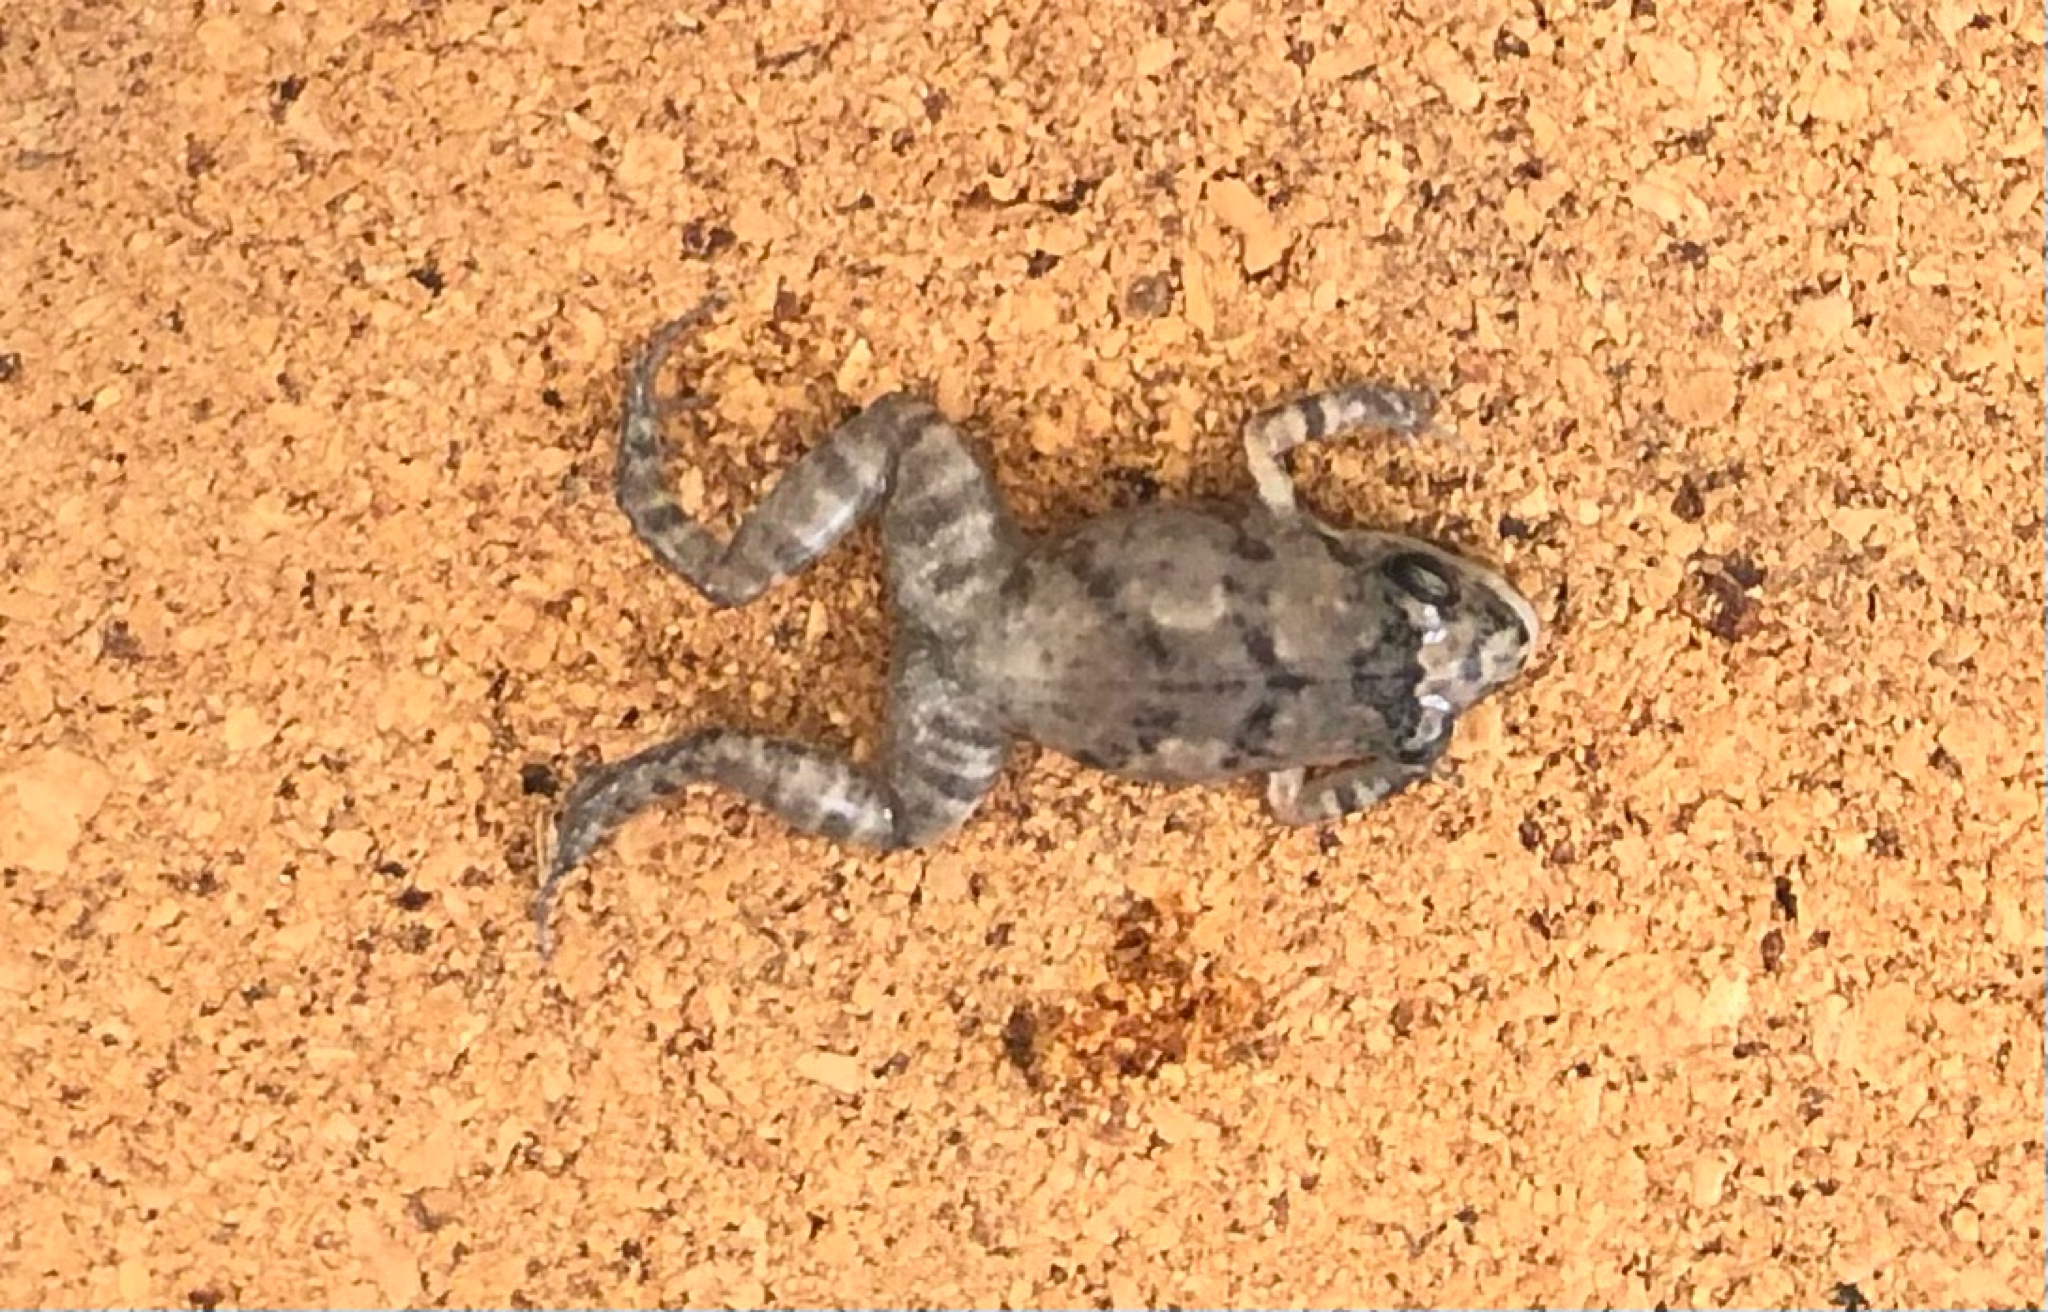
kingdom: Animalia
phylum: Chordata
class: Amphibia
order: Anura
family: Eleutherodactylidae
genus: Eleutherodactylus
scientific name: Eleutherodactylus planirostris
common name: Greenhouse frog
